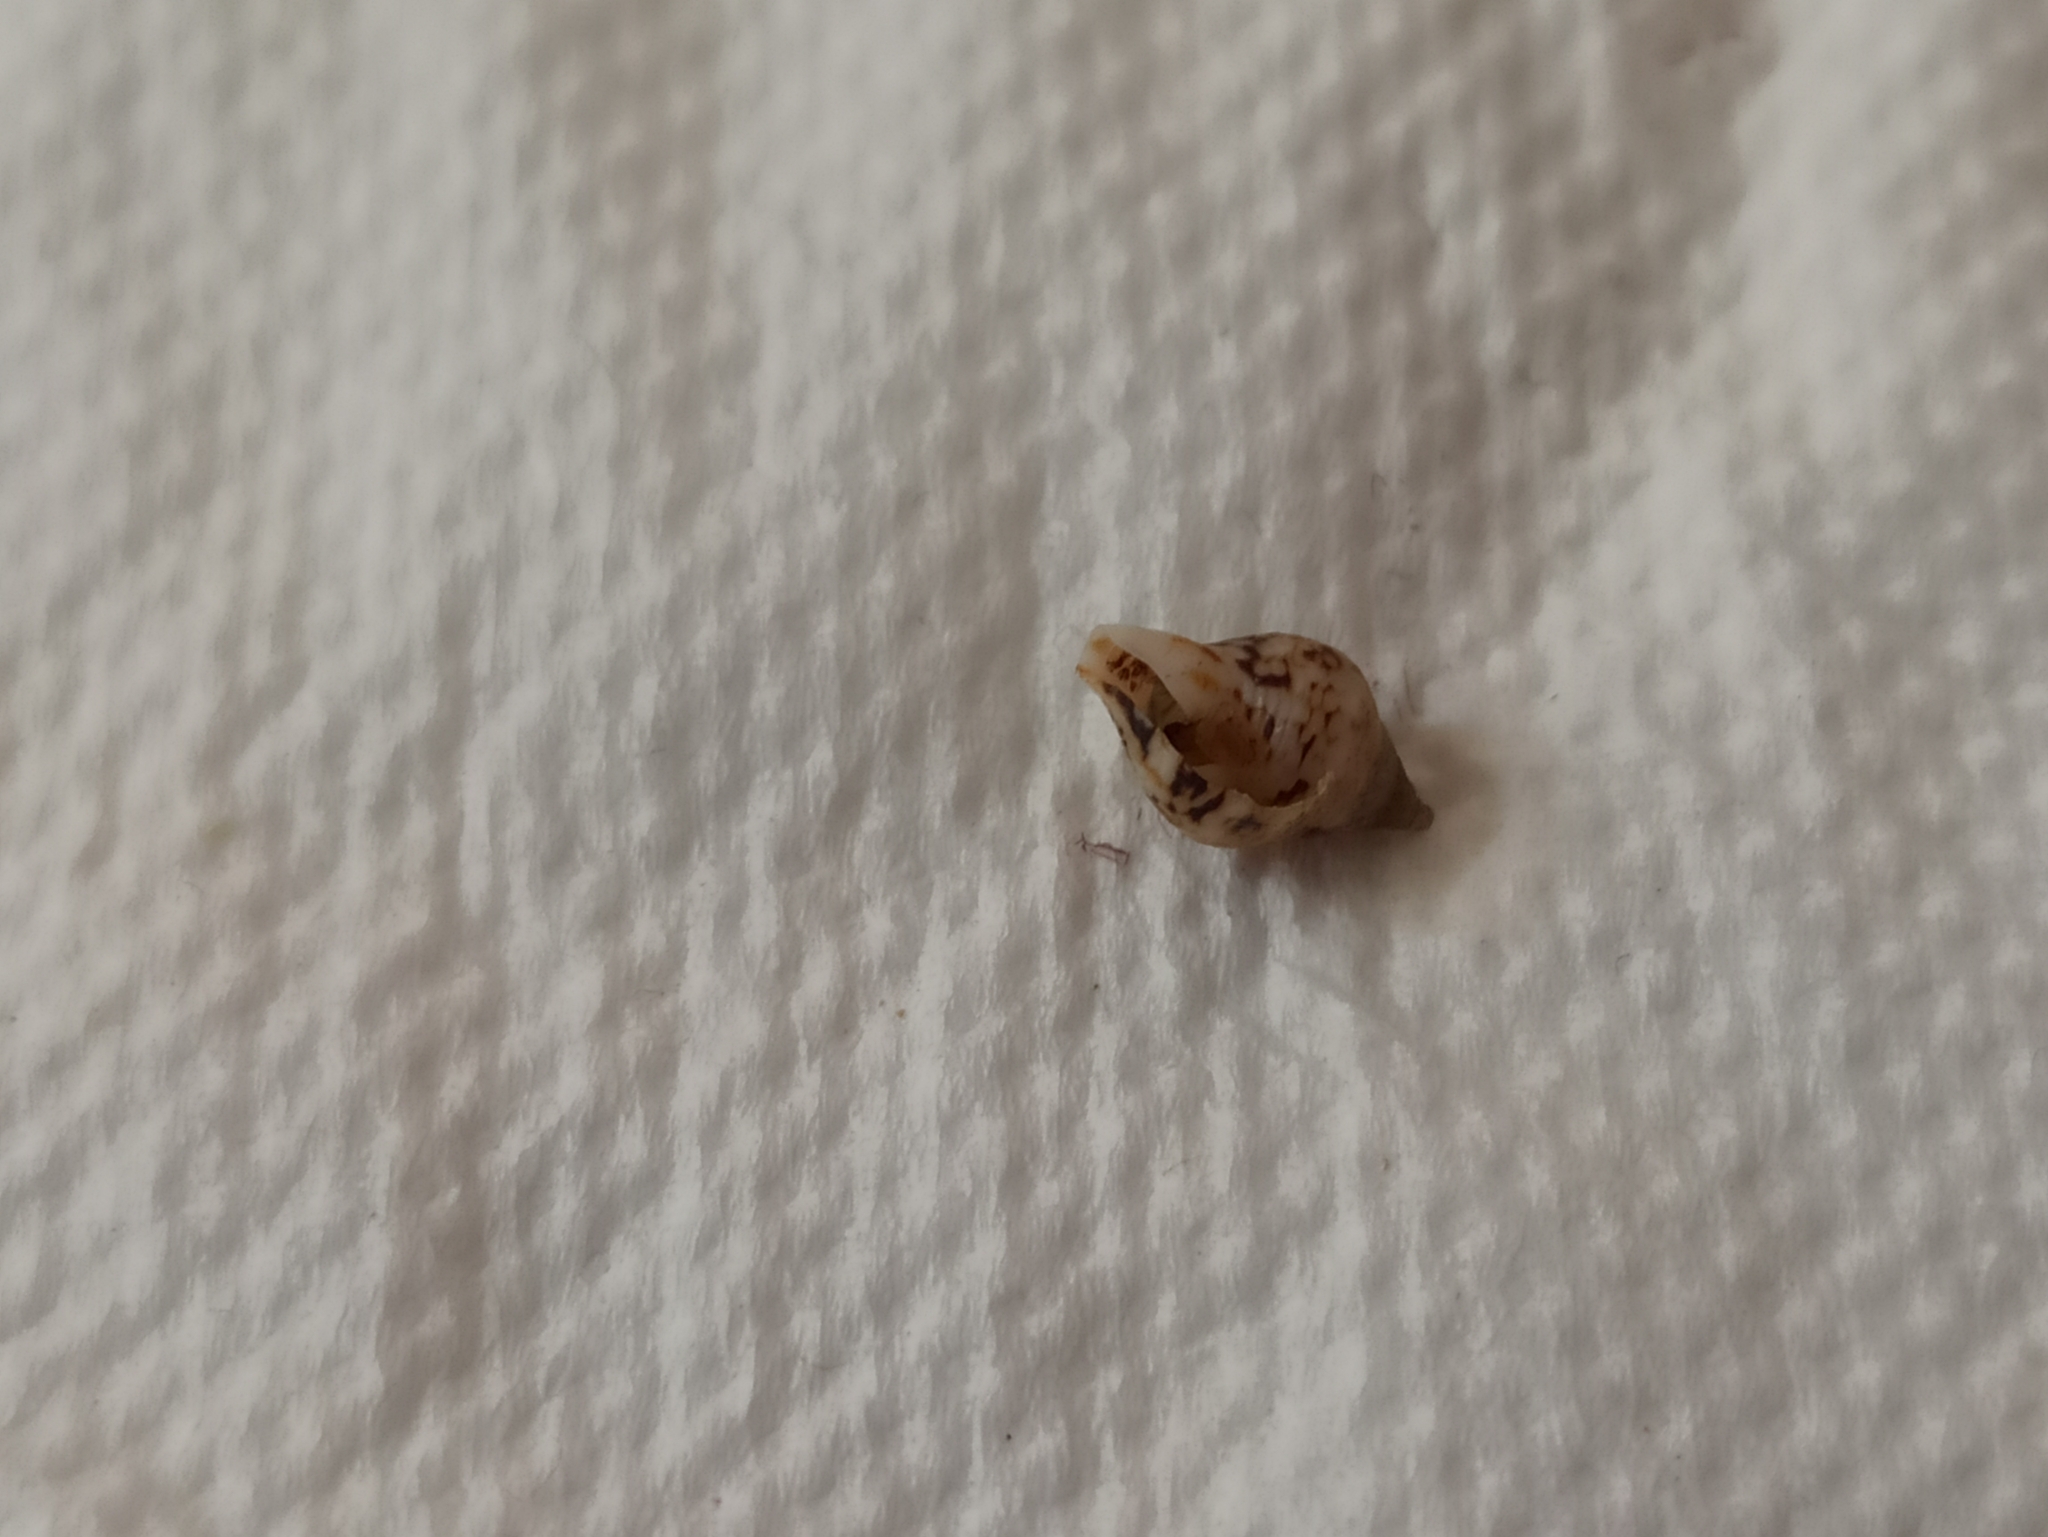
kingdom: Animalia
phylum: Mollusca
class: Gastropoda
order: Neogastropoda
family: Columbellidae
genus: Columbella
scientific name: Columbella rustica
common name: Rustic dove shell
